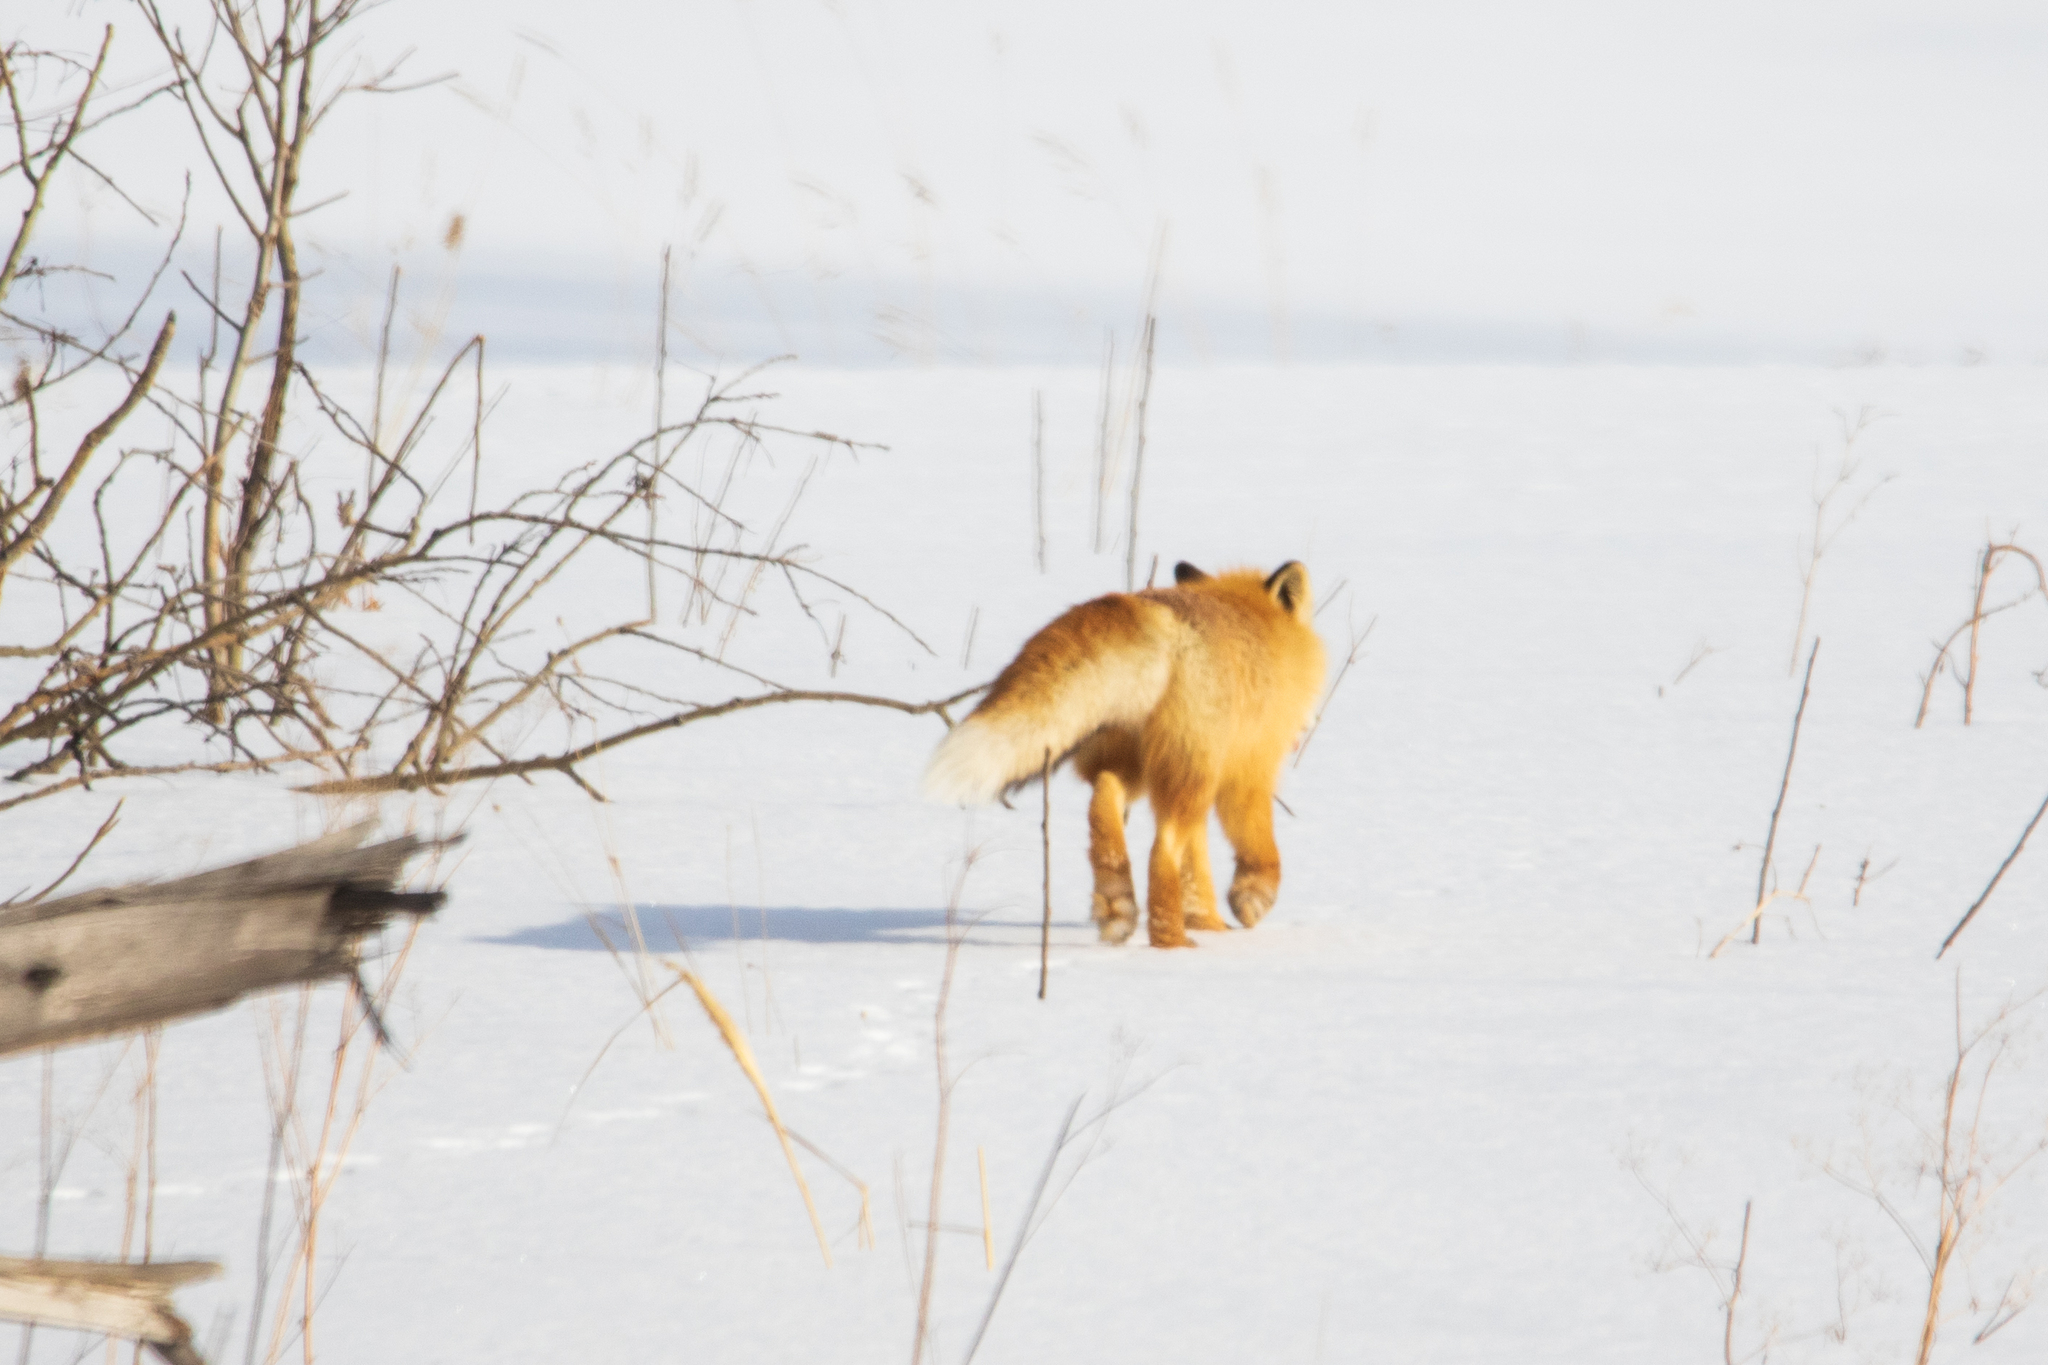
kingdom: Animalia
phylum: Chordata
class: Mammalia
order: Carnivora
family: Canidae
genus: Vulpes
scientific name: Vulpes vulpes
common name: Red fox
